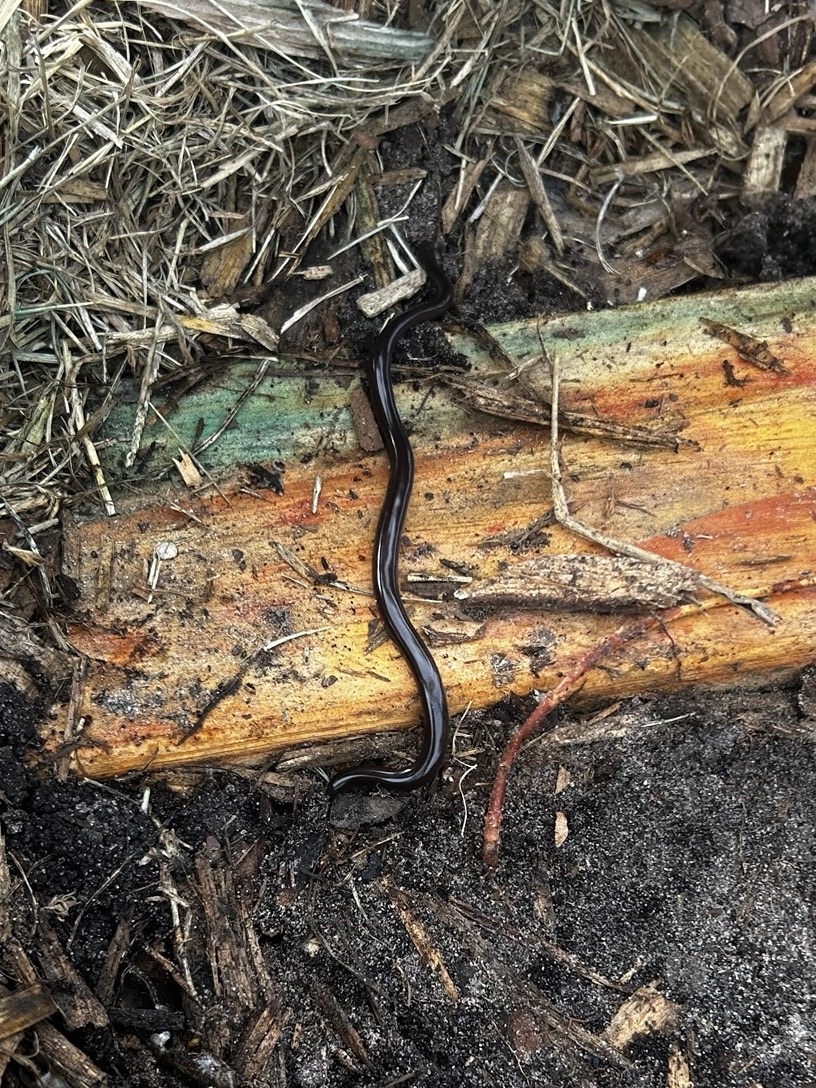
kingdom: Animalia
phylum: Chordata
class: Squamata
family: Typhlopidae
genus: Indotyphlops
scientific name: Indotyphlops braminus
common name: Brahminy blindsnake
